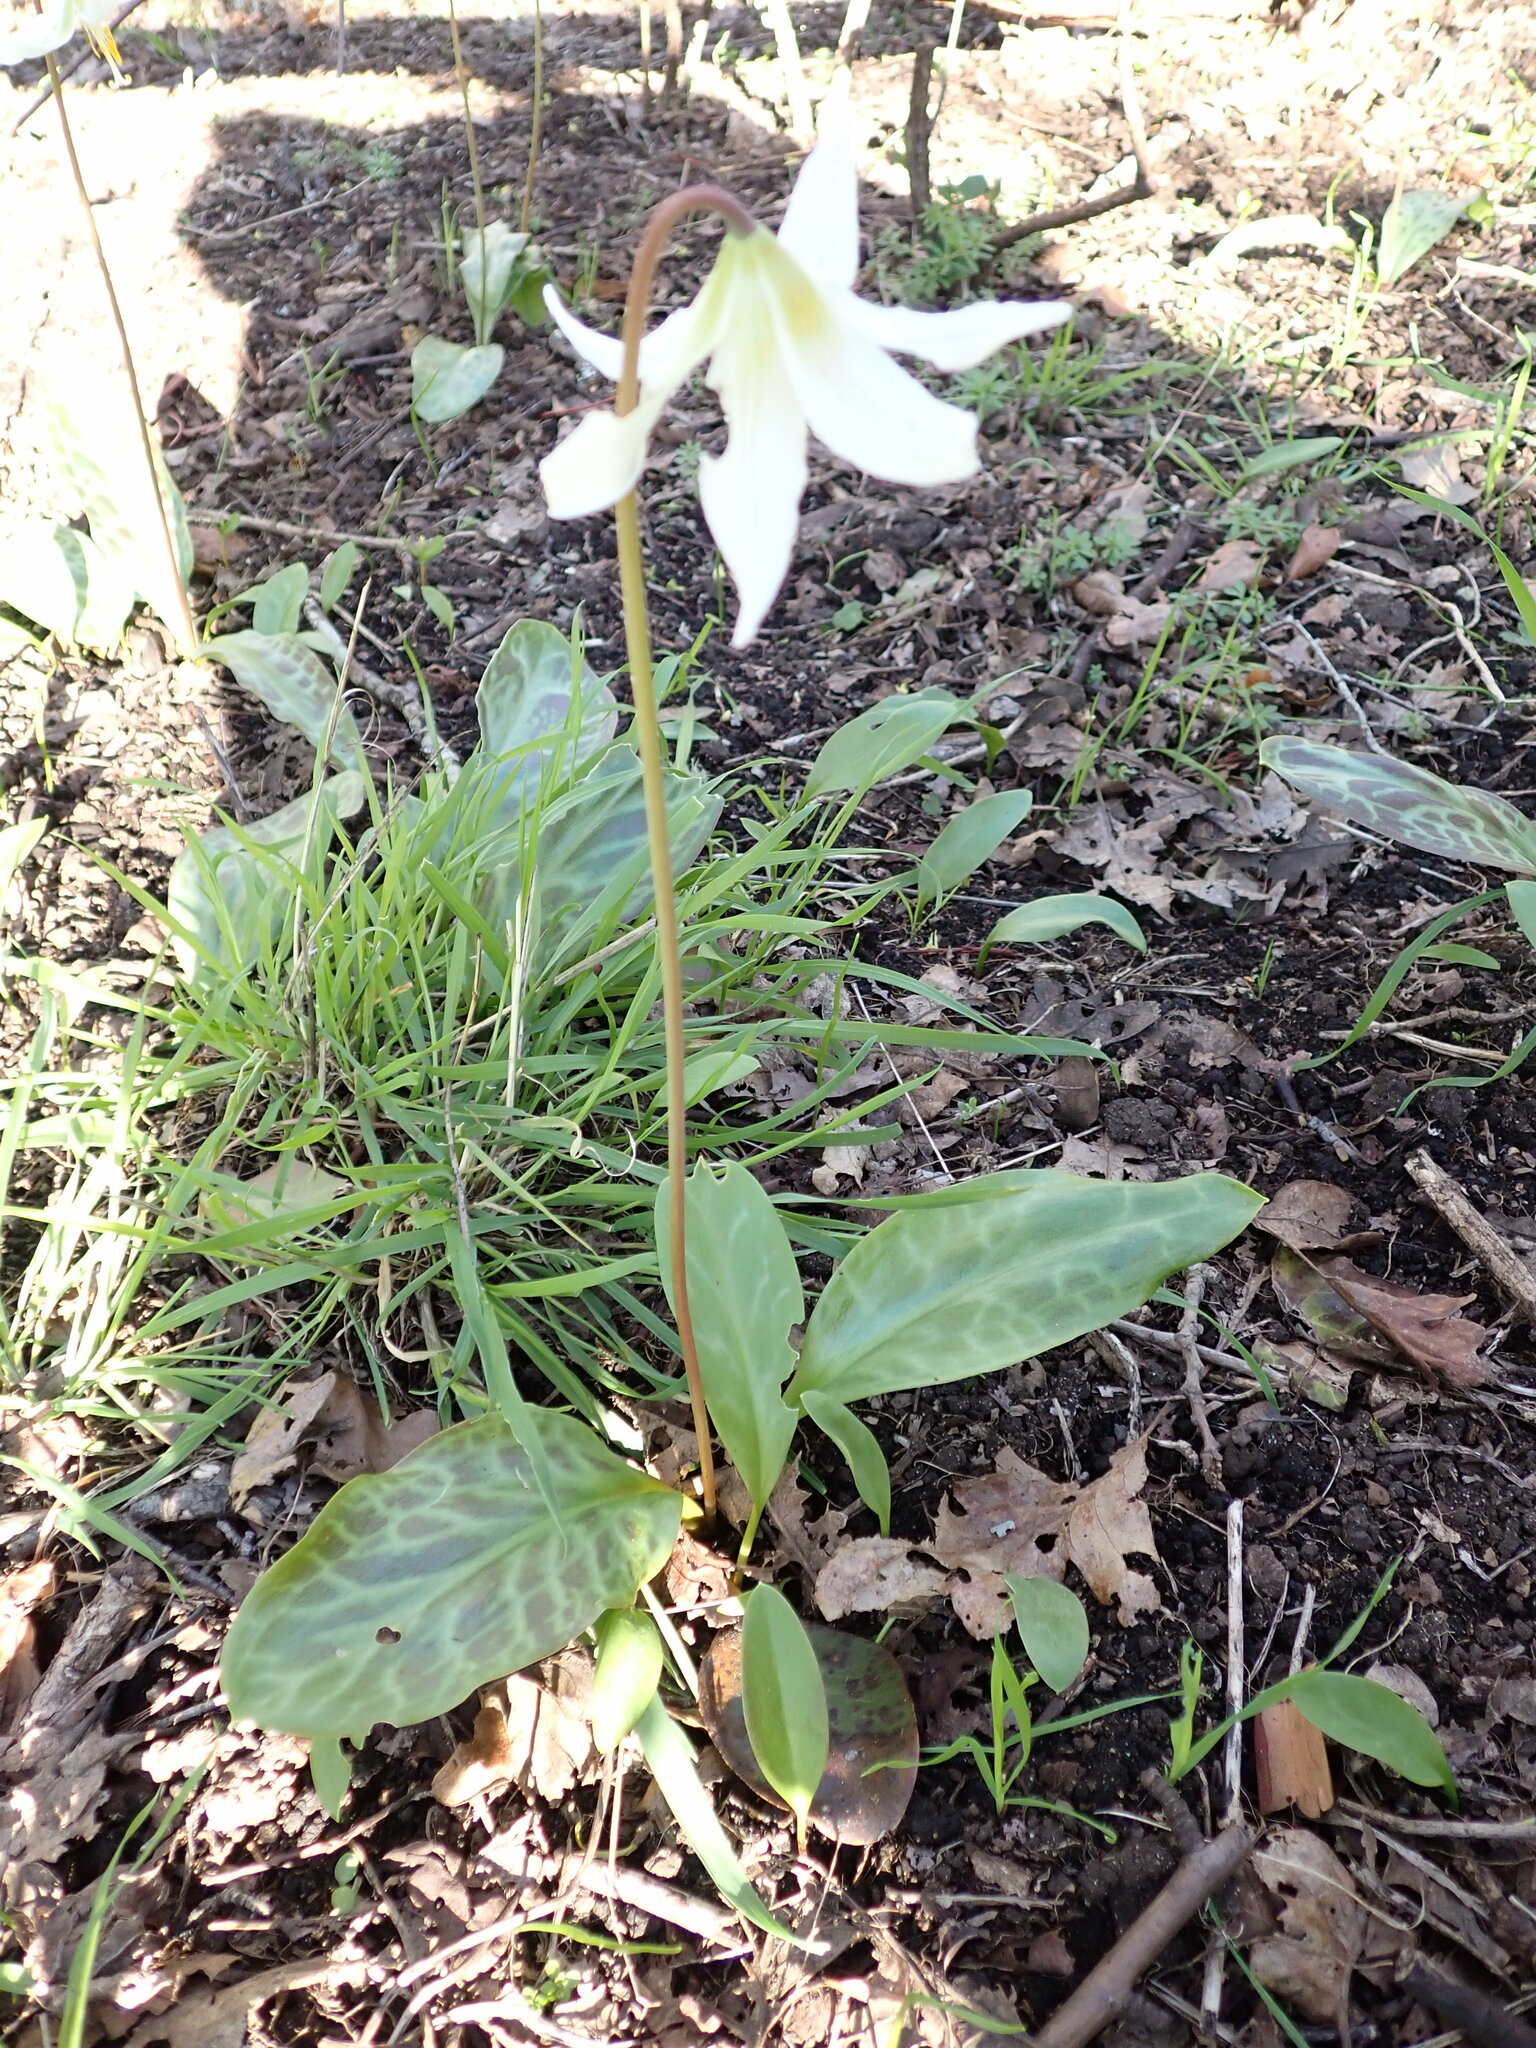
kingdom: Plantae
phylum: Tracheophyta
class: Liliopsida
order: Liliales
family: Liliaceae
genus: Erythronium
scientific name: Erythronium oregonum
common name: Giant adder's-tongue
